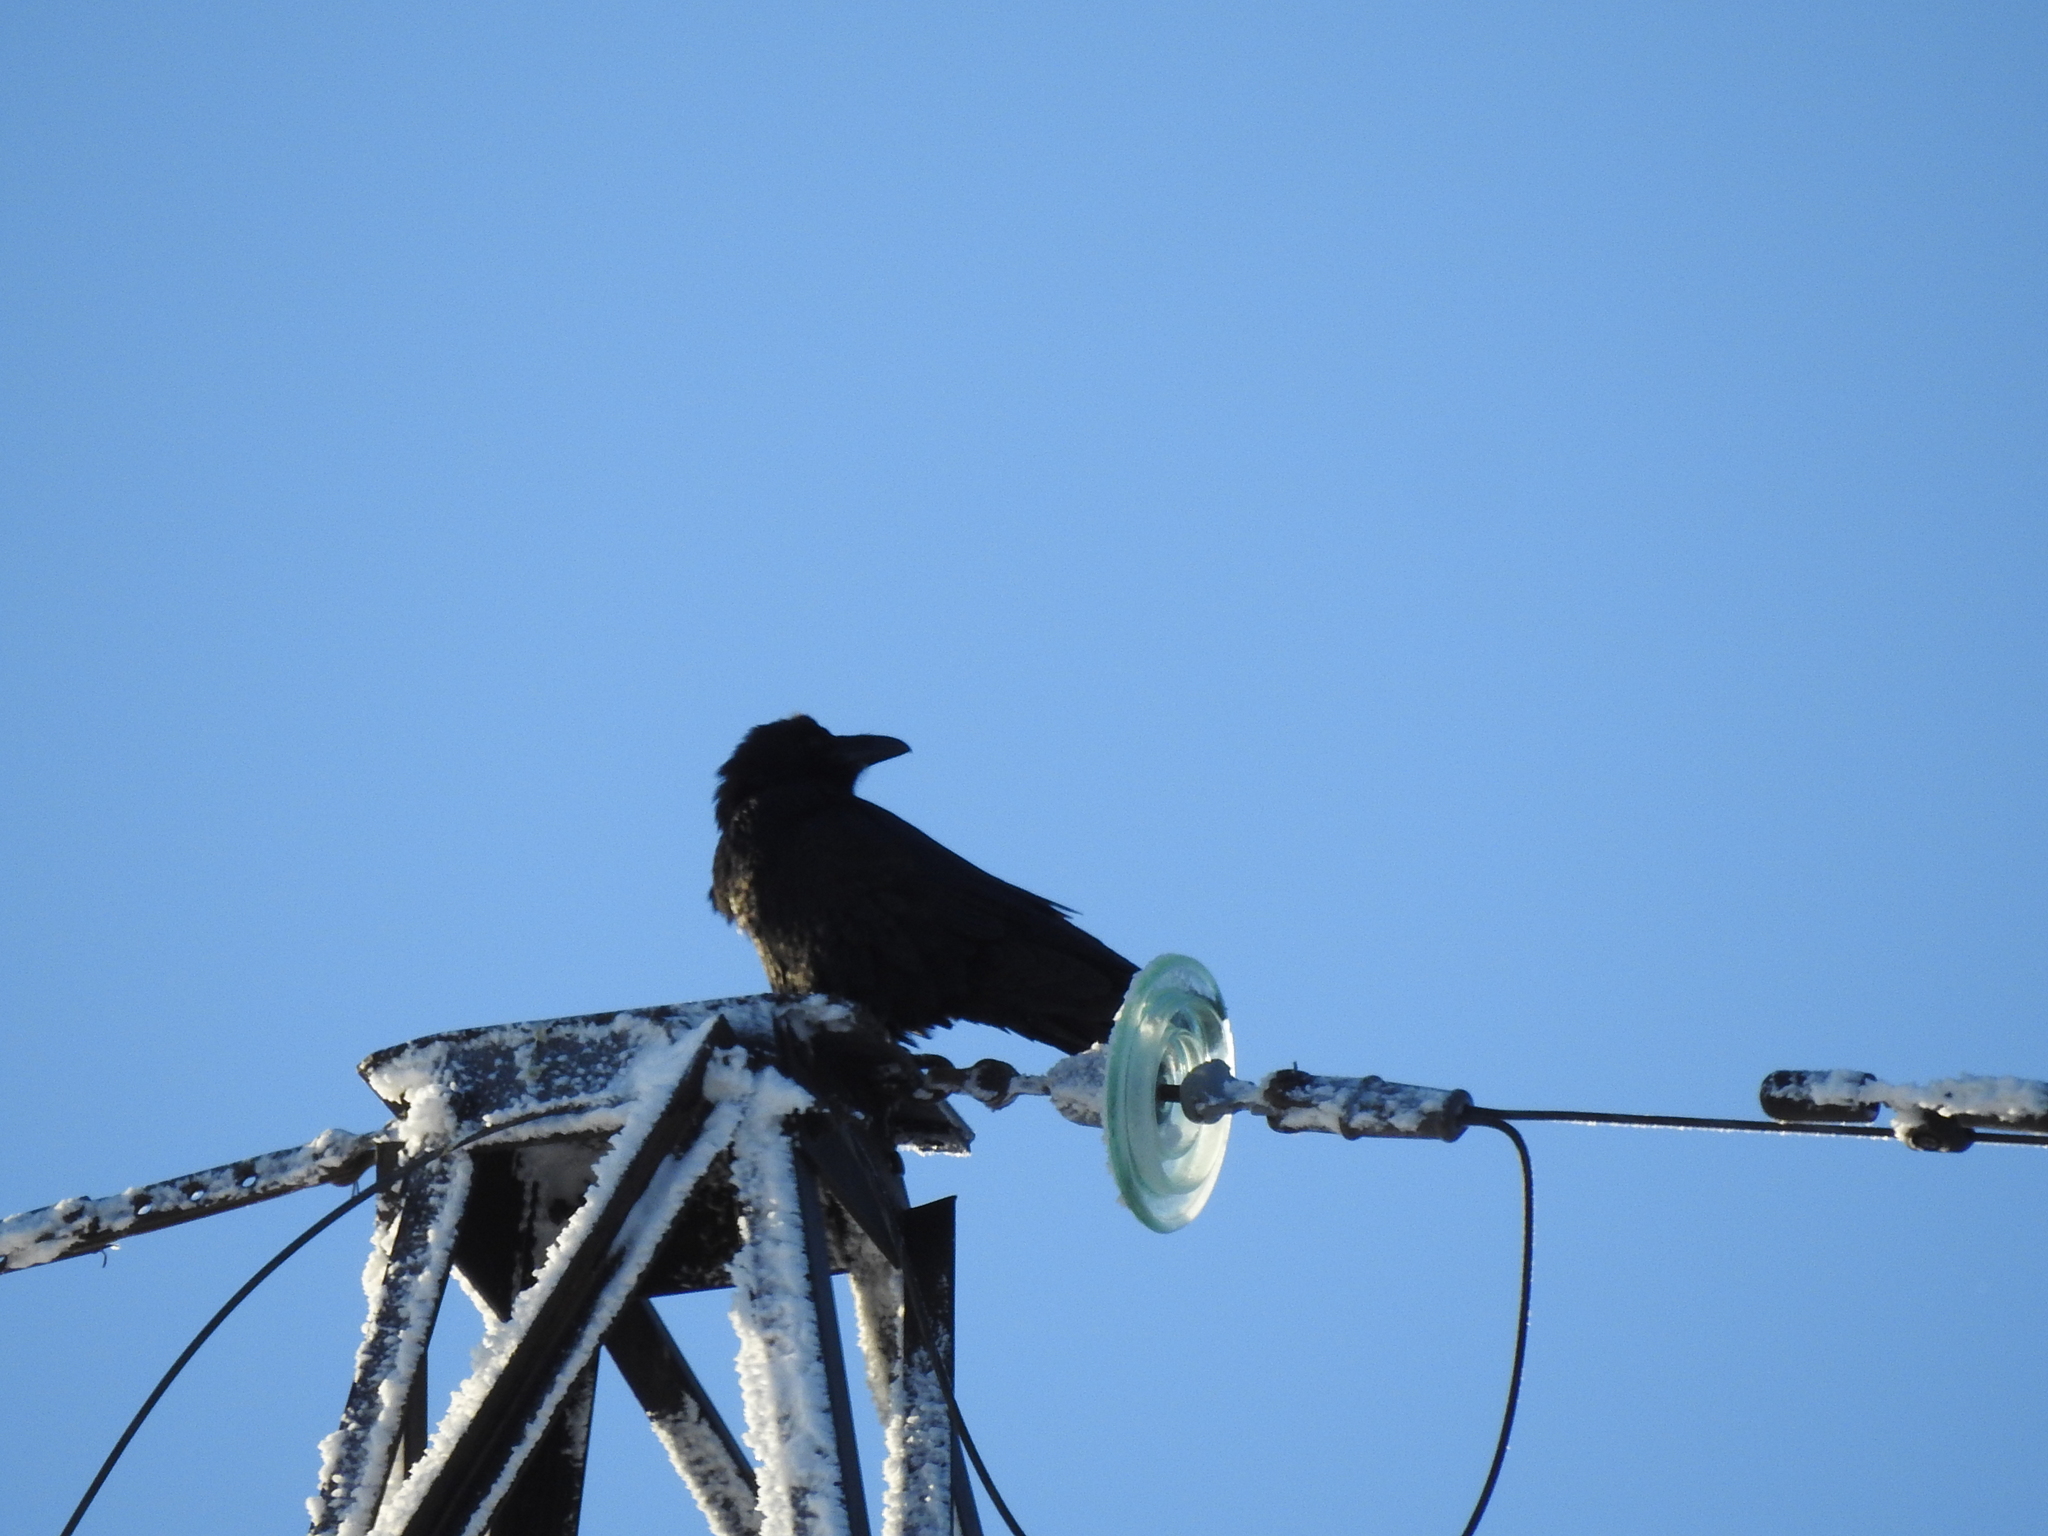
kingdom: Animalia
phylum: Chordata
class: Aves
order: Passeriformes
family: Corvidae
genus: Corvus
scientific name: Corvus corax
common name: Common raven
